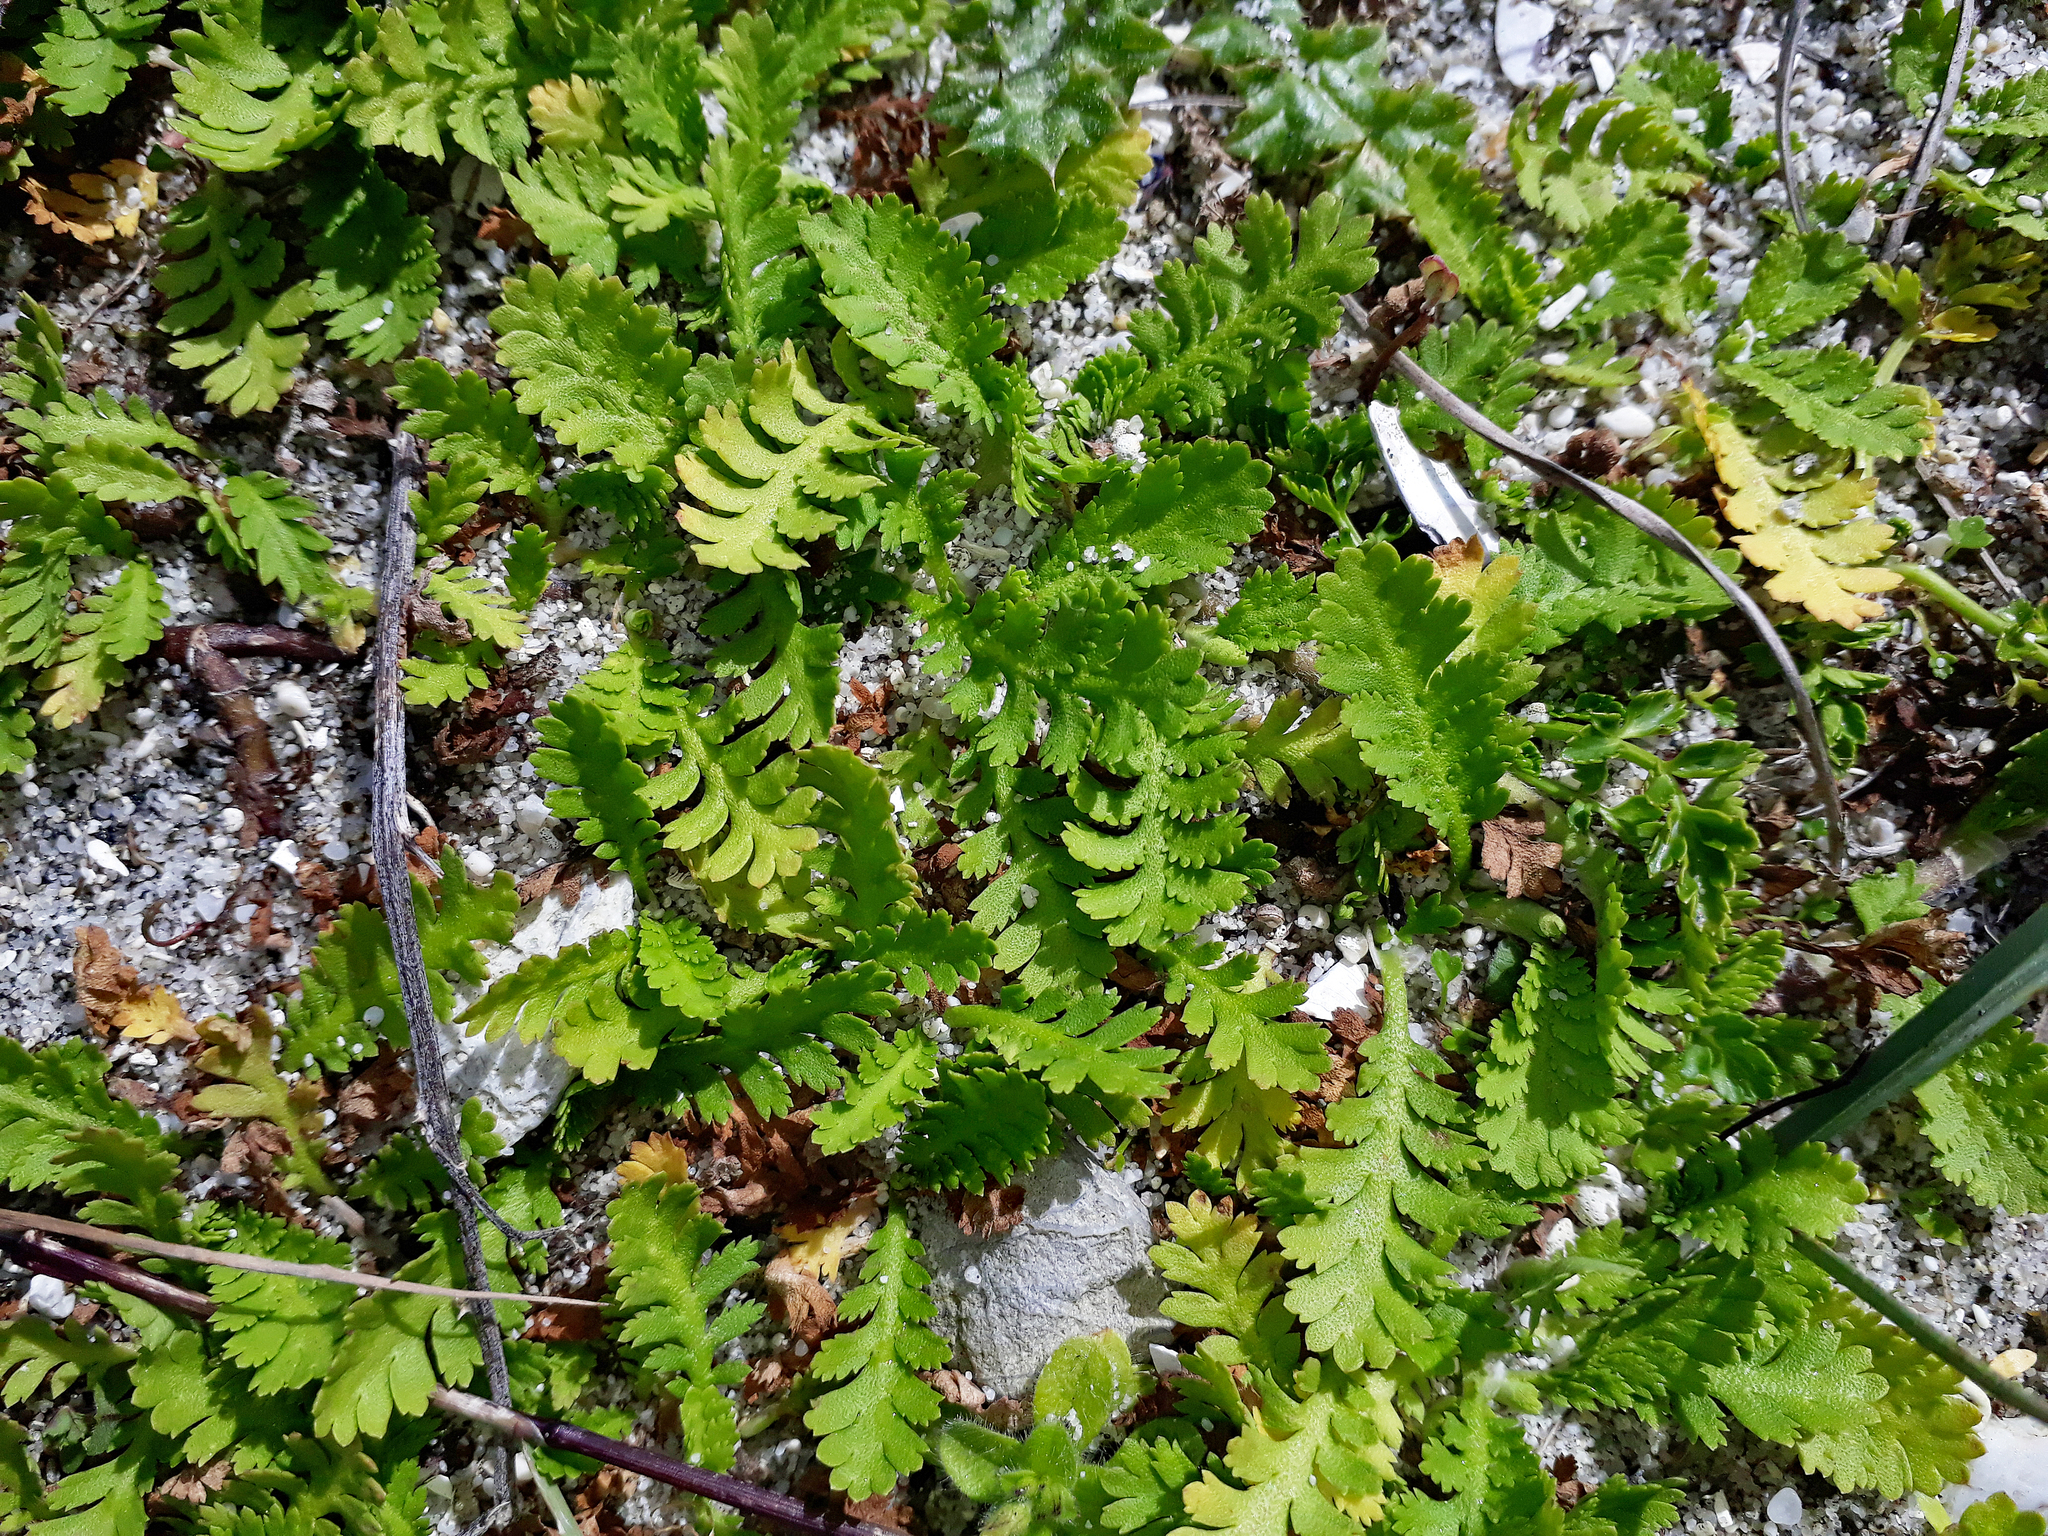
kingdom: Plantae
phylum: Tracheophyta
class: Magnoliopsida
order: Asterales
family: Asteraceae
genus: Leptinella
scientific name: Leptinella potentillina
